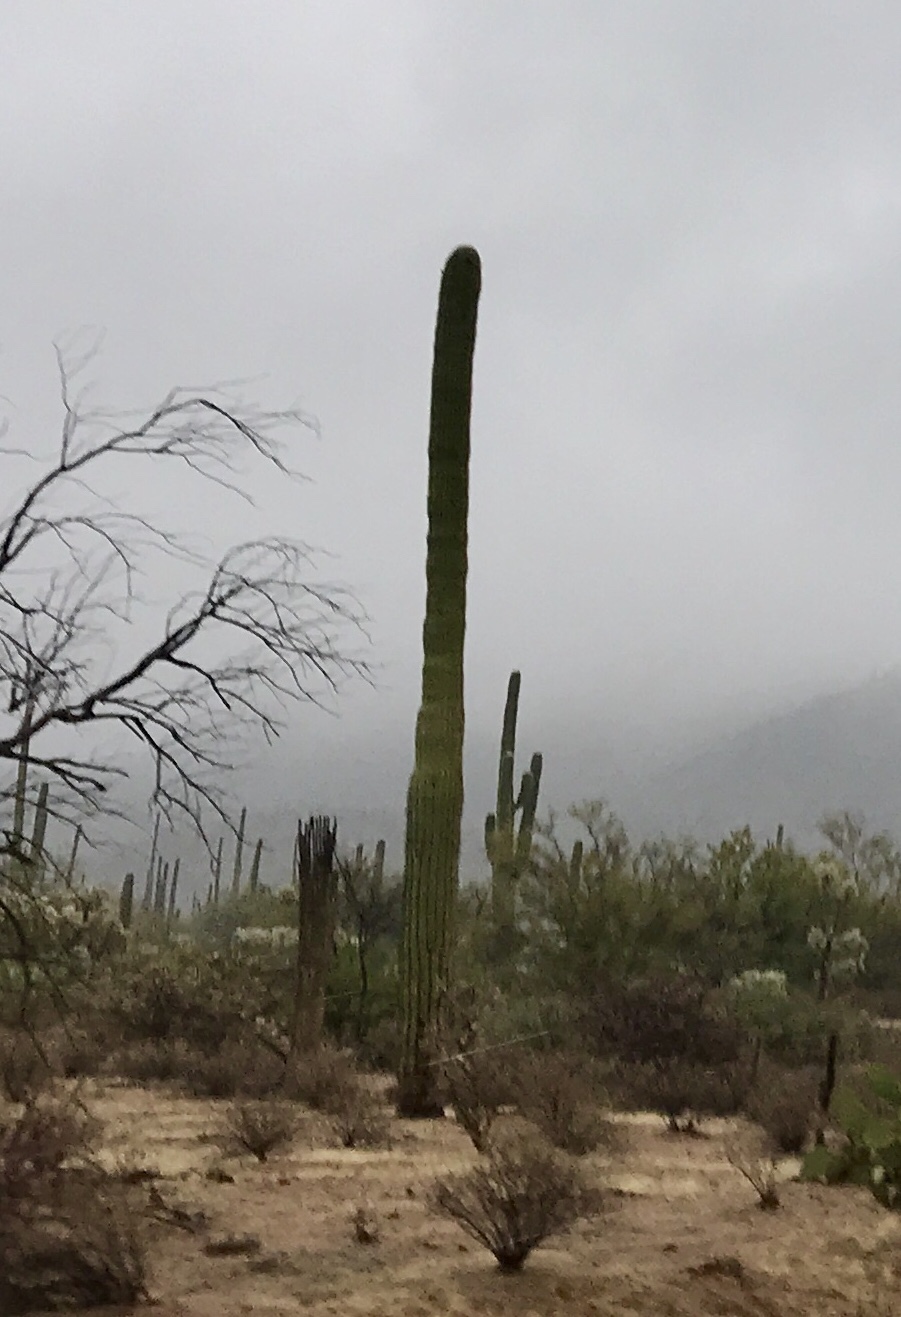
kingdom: Plantae
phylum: Tracheophyta
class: Magnoliopsida
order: Caryophyllales
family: Cactaceae
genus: Carnegiea
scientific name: Carnegiea gigantea
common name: Saguaro
